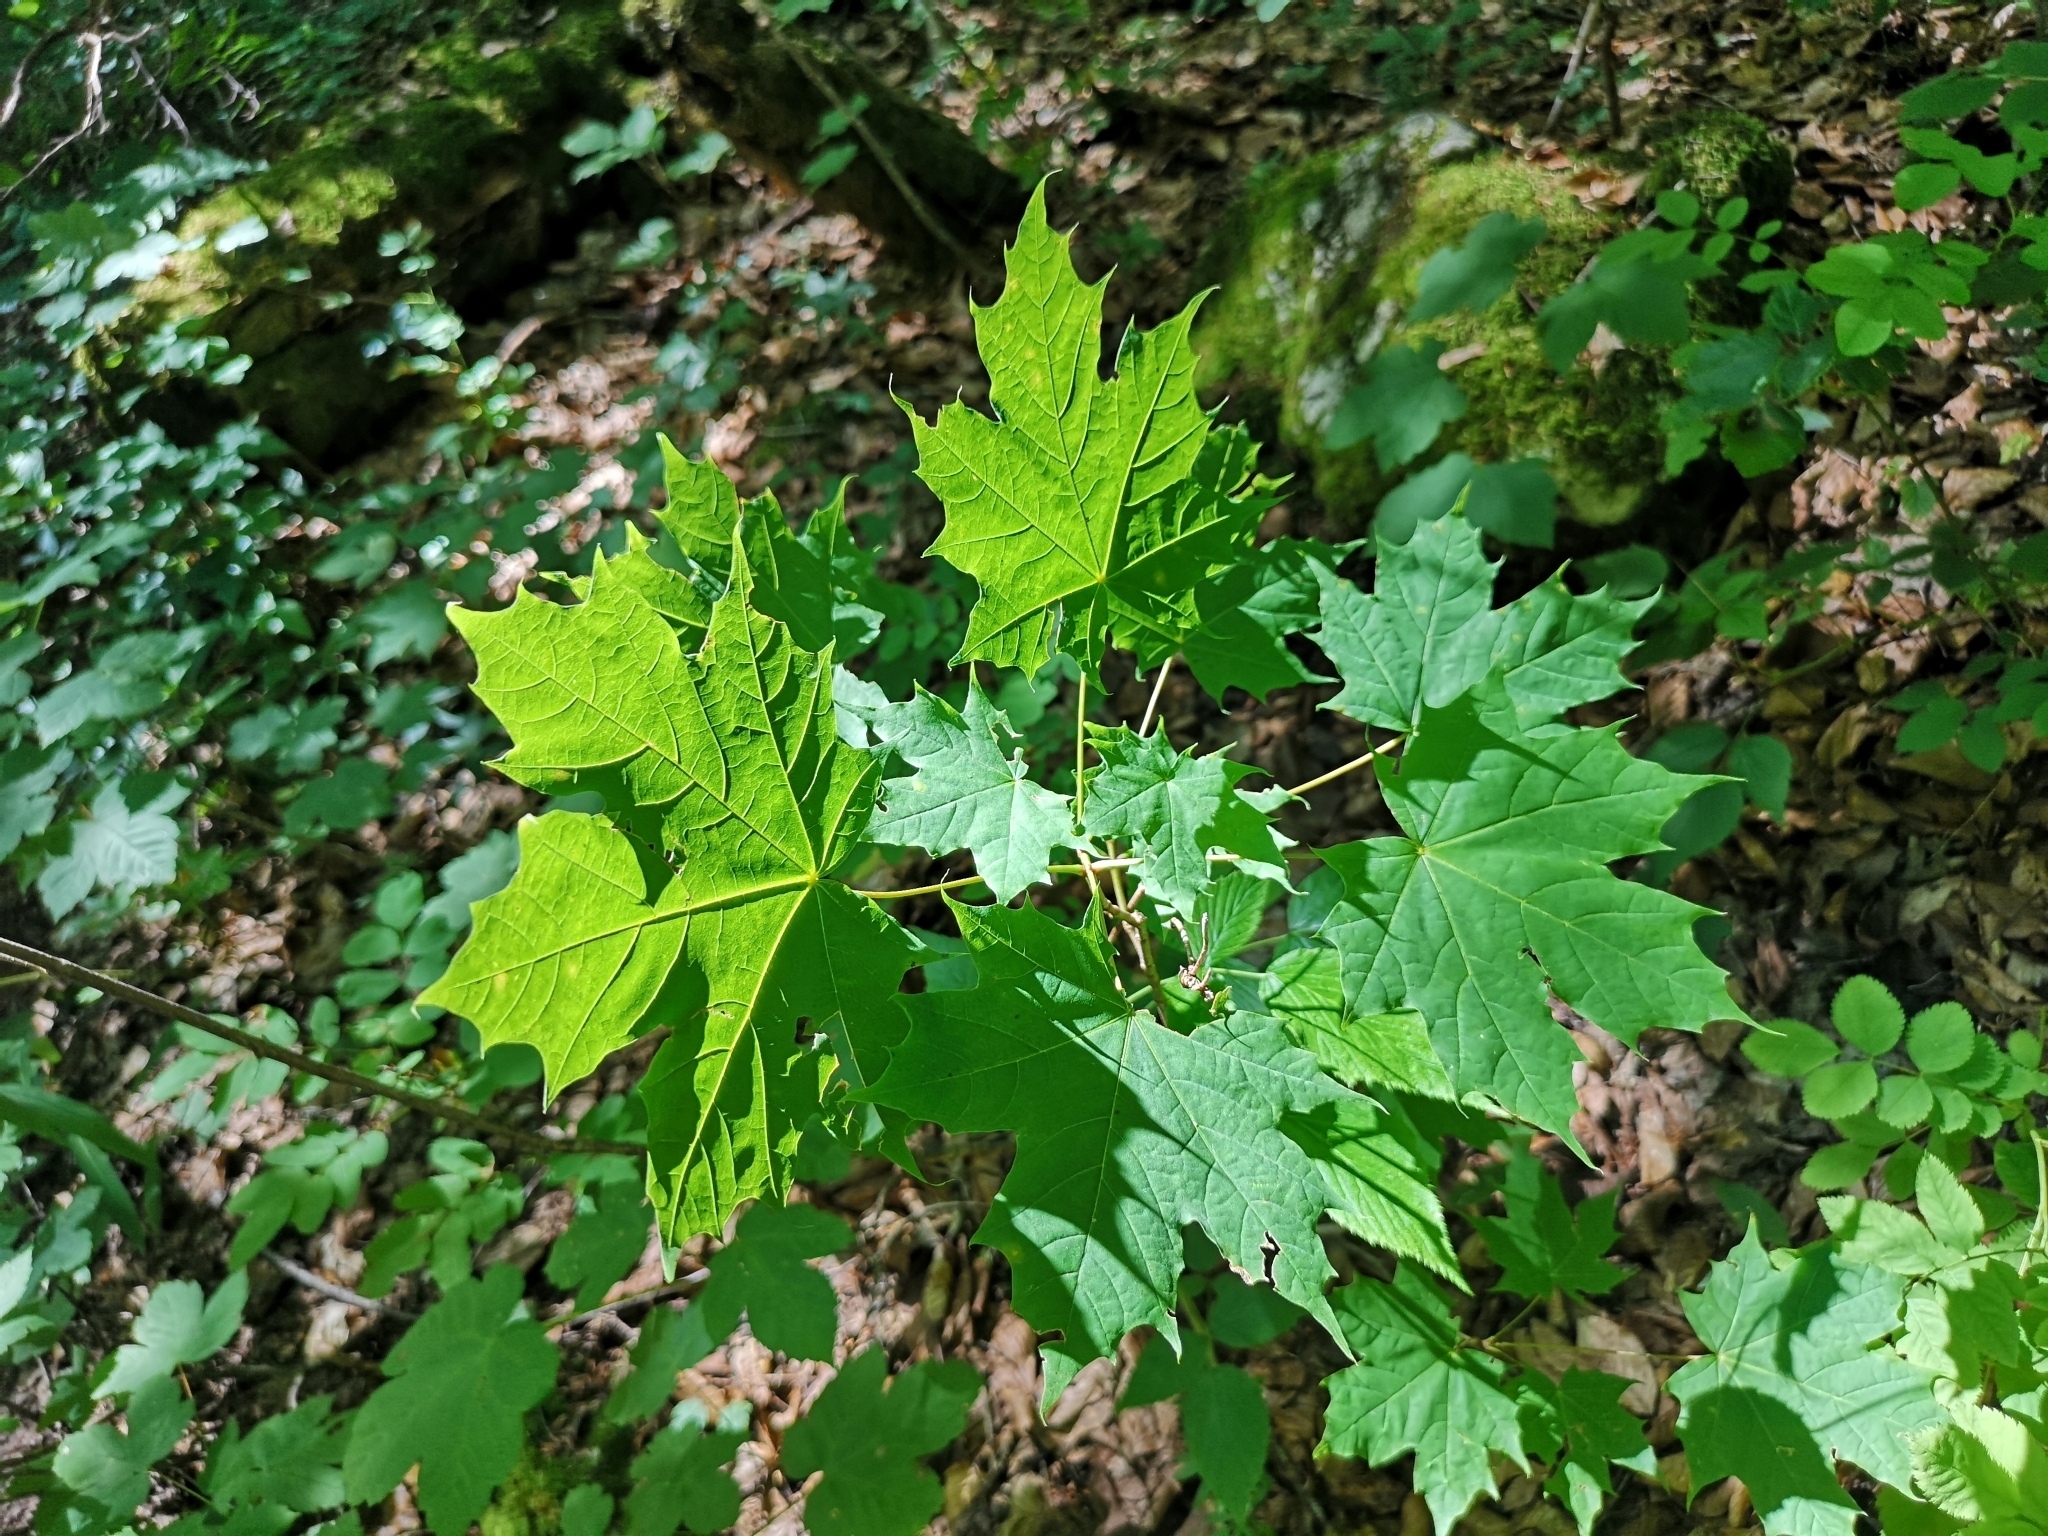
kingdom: Plantae
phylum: Tracheophyta
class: Magnoliopsida
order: Sapindales
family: Sapindaceae
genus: Acer
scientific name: Acer platanoides
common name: Norway maple
